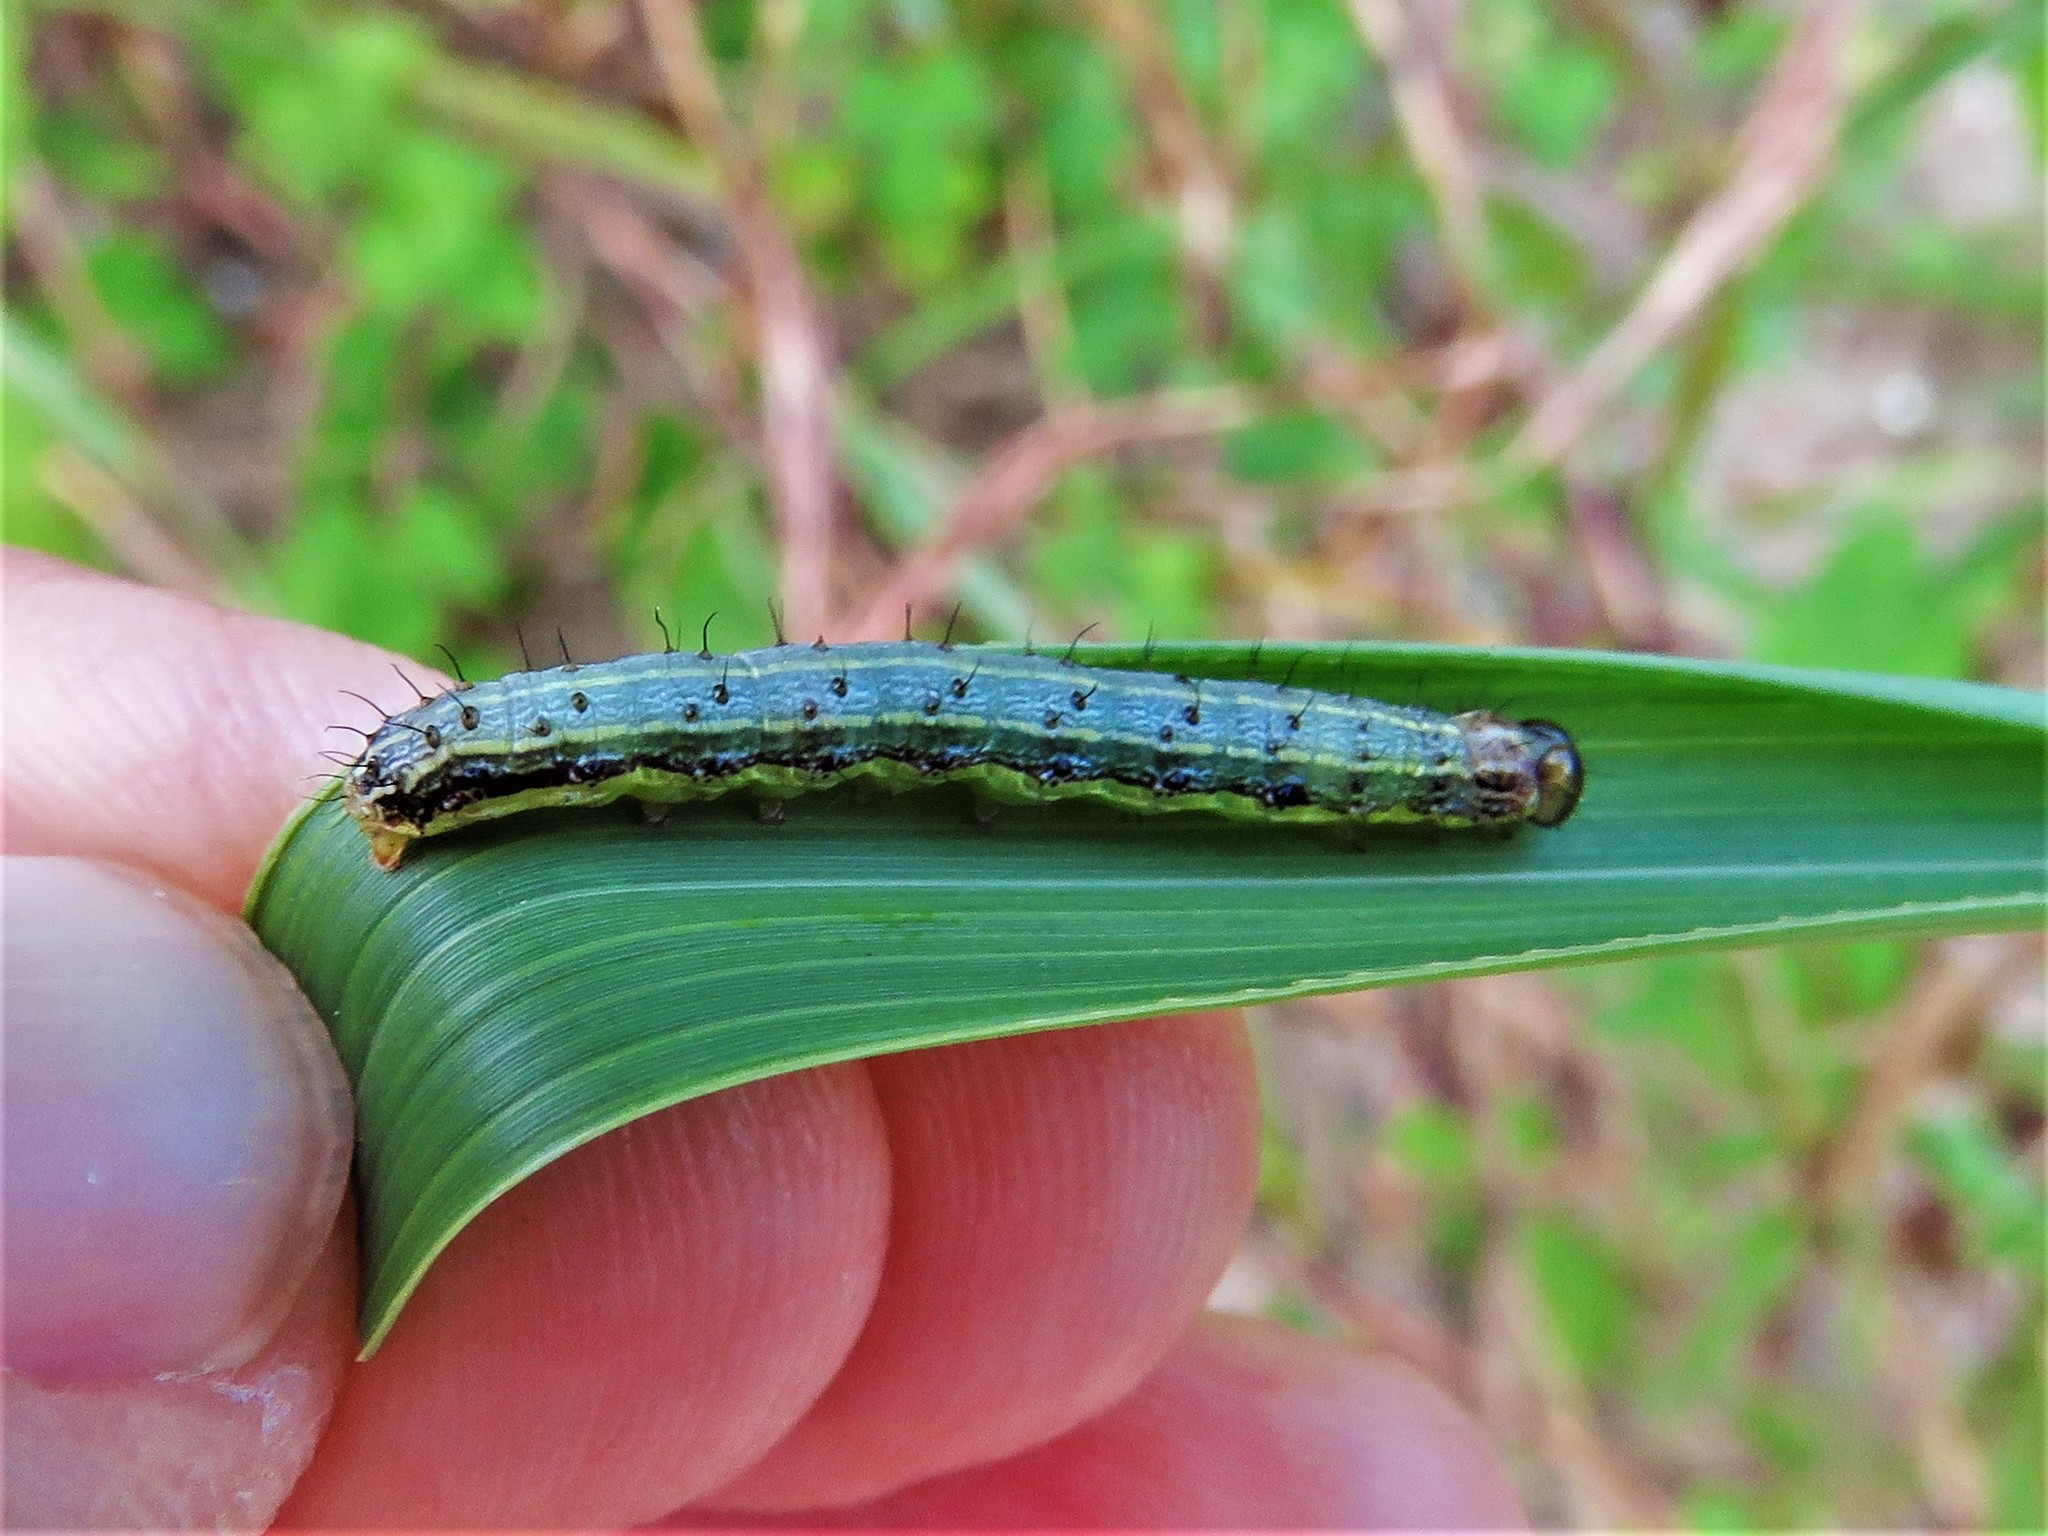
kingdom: Animalia
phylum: Arthropoda
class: Insecta
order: Lepidoptera
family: Noctuidae
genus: Spodoptera
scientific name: Spodoptera frugiperda
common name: Fall armyworm
